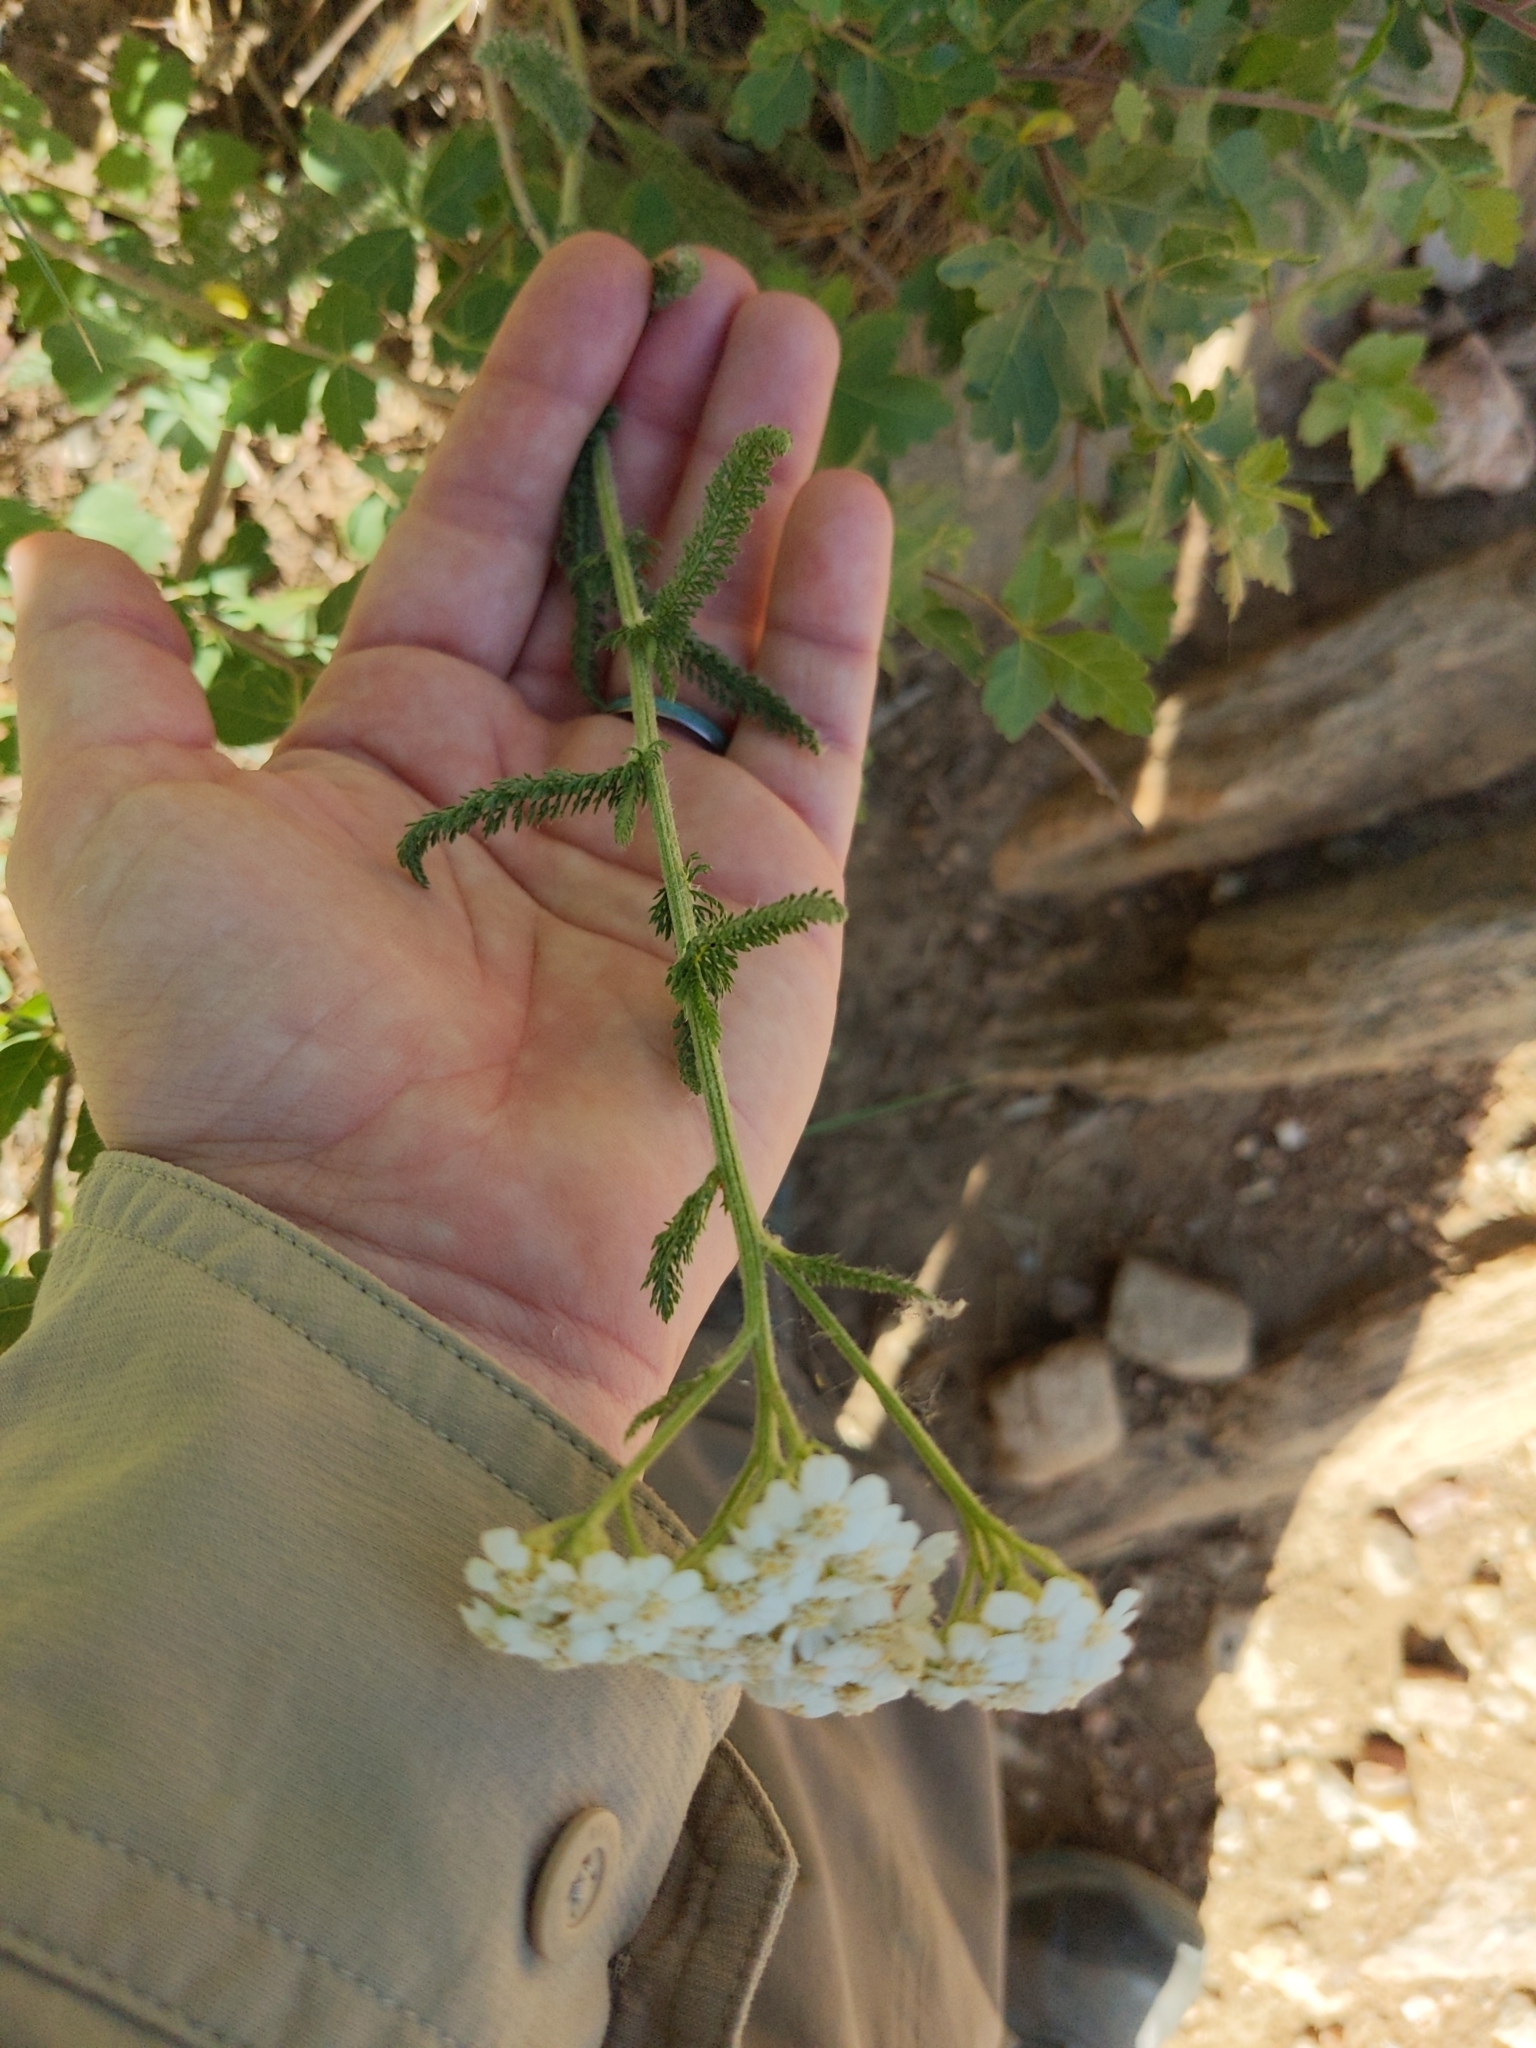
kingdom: Plantae
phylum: Tracheophyta
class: Magnoliopsida
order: Asterales
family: Asteraceae
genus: Achillea
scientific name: Achillea millefolium
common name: Yarrow
